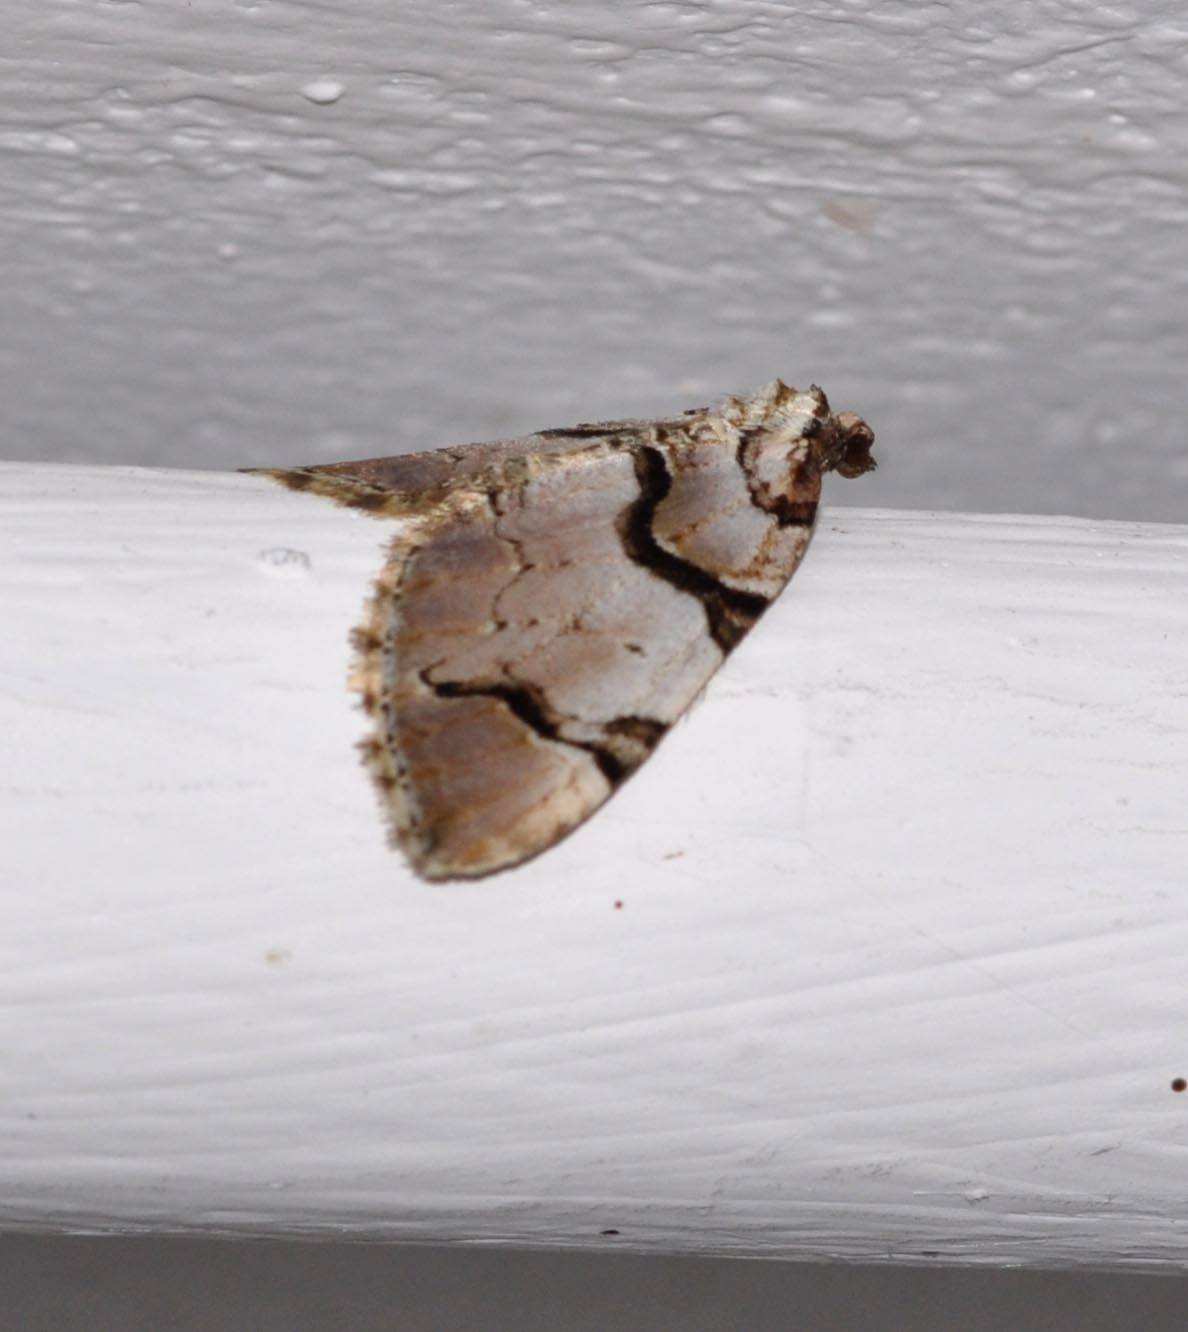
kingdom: Animalia
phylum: Arthropoda
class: Insecta
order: Lepidoptera
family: Geometridae
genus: Anticlea
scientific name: Anticlea derivata
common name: Streamer
